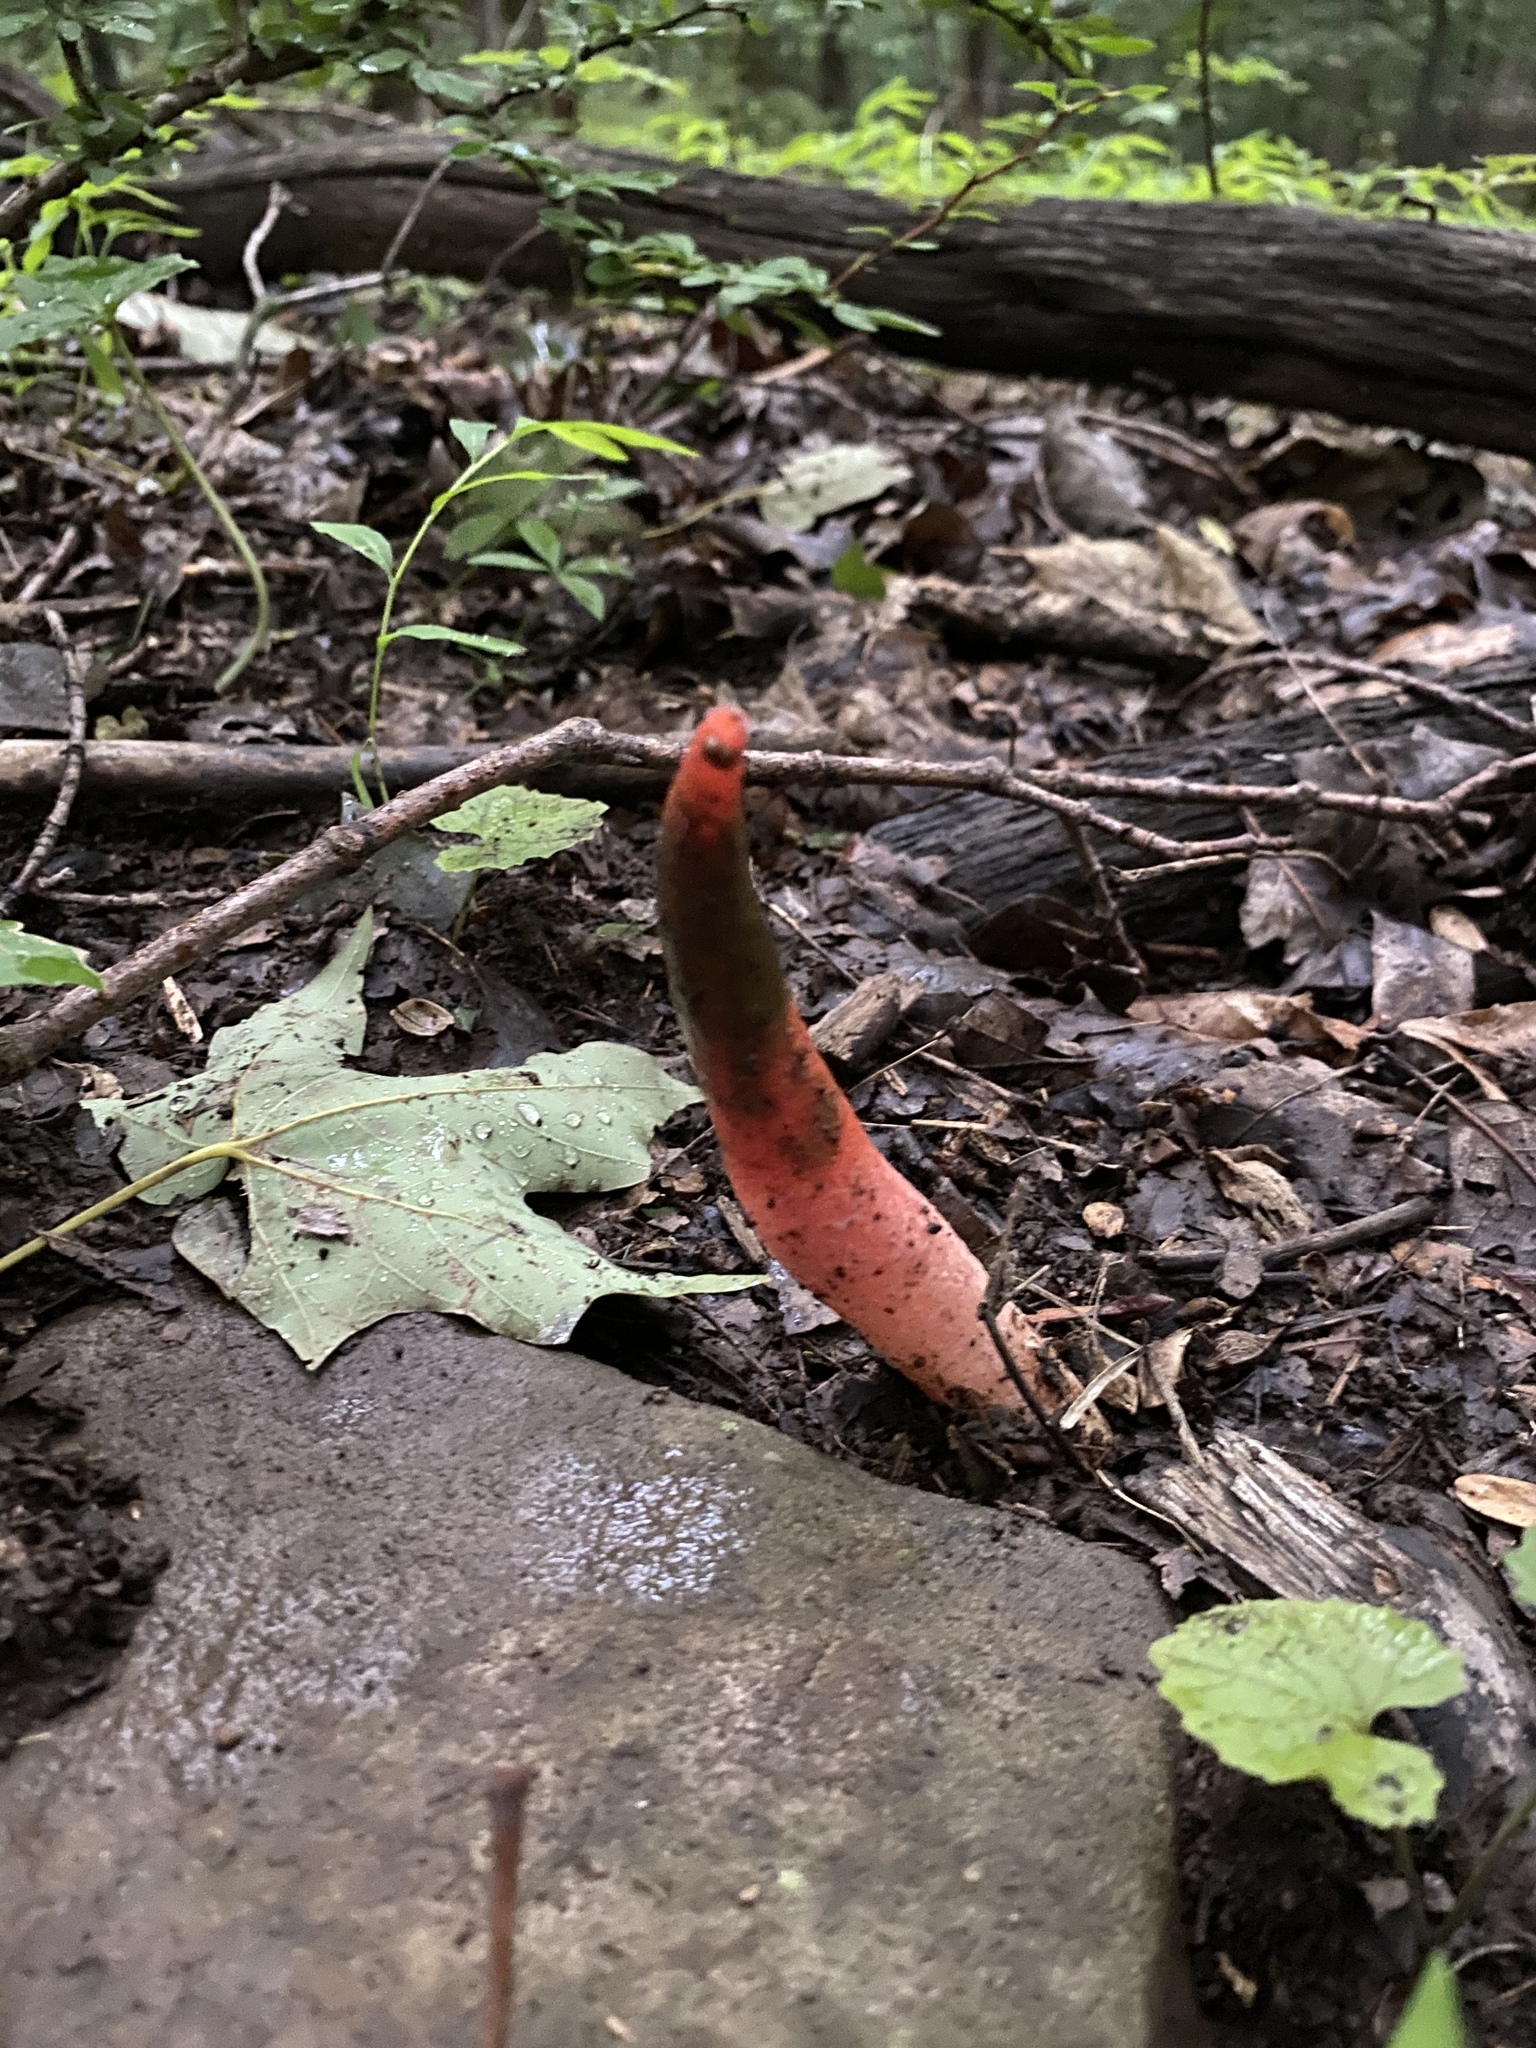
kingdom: Fungi
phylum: Basidiomycota
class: Agaricomycetes
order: Phallales
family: Phallaceae
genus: Mutinus
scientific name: Mutinus elegans
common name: Devil's dipstick
